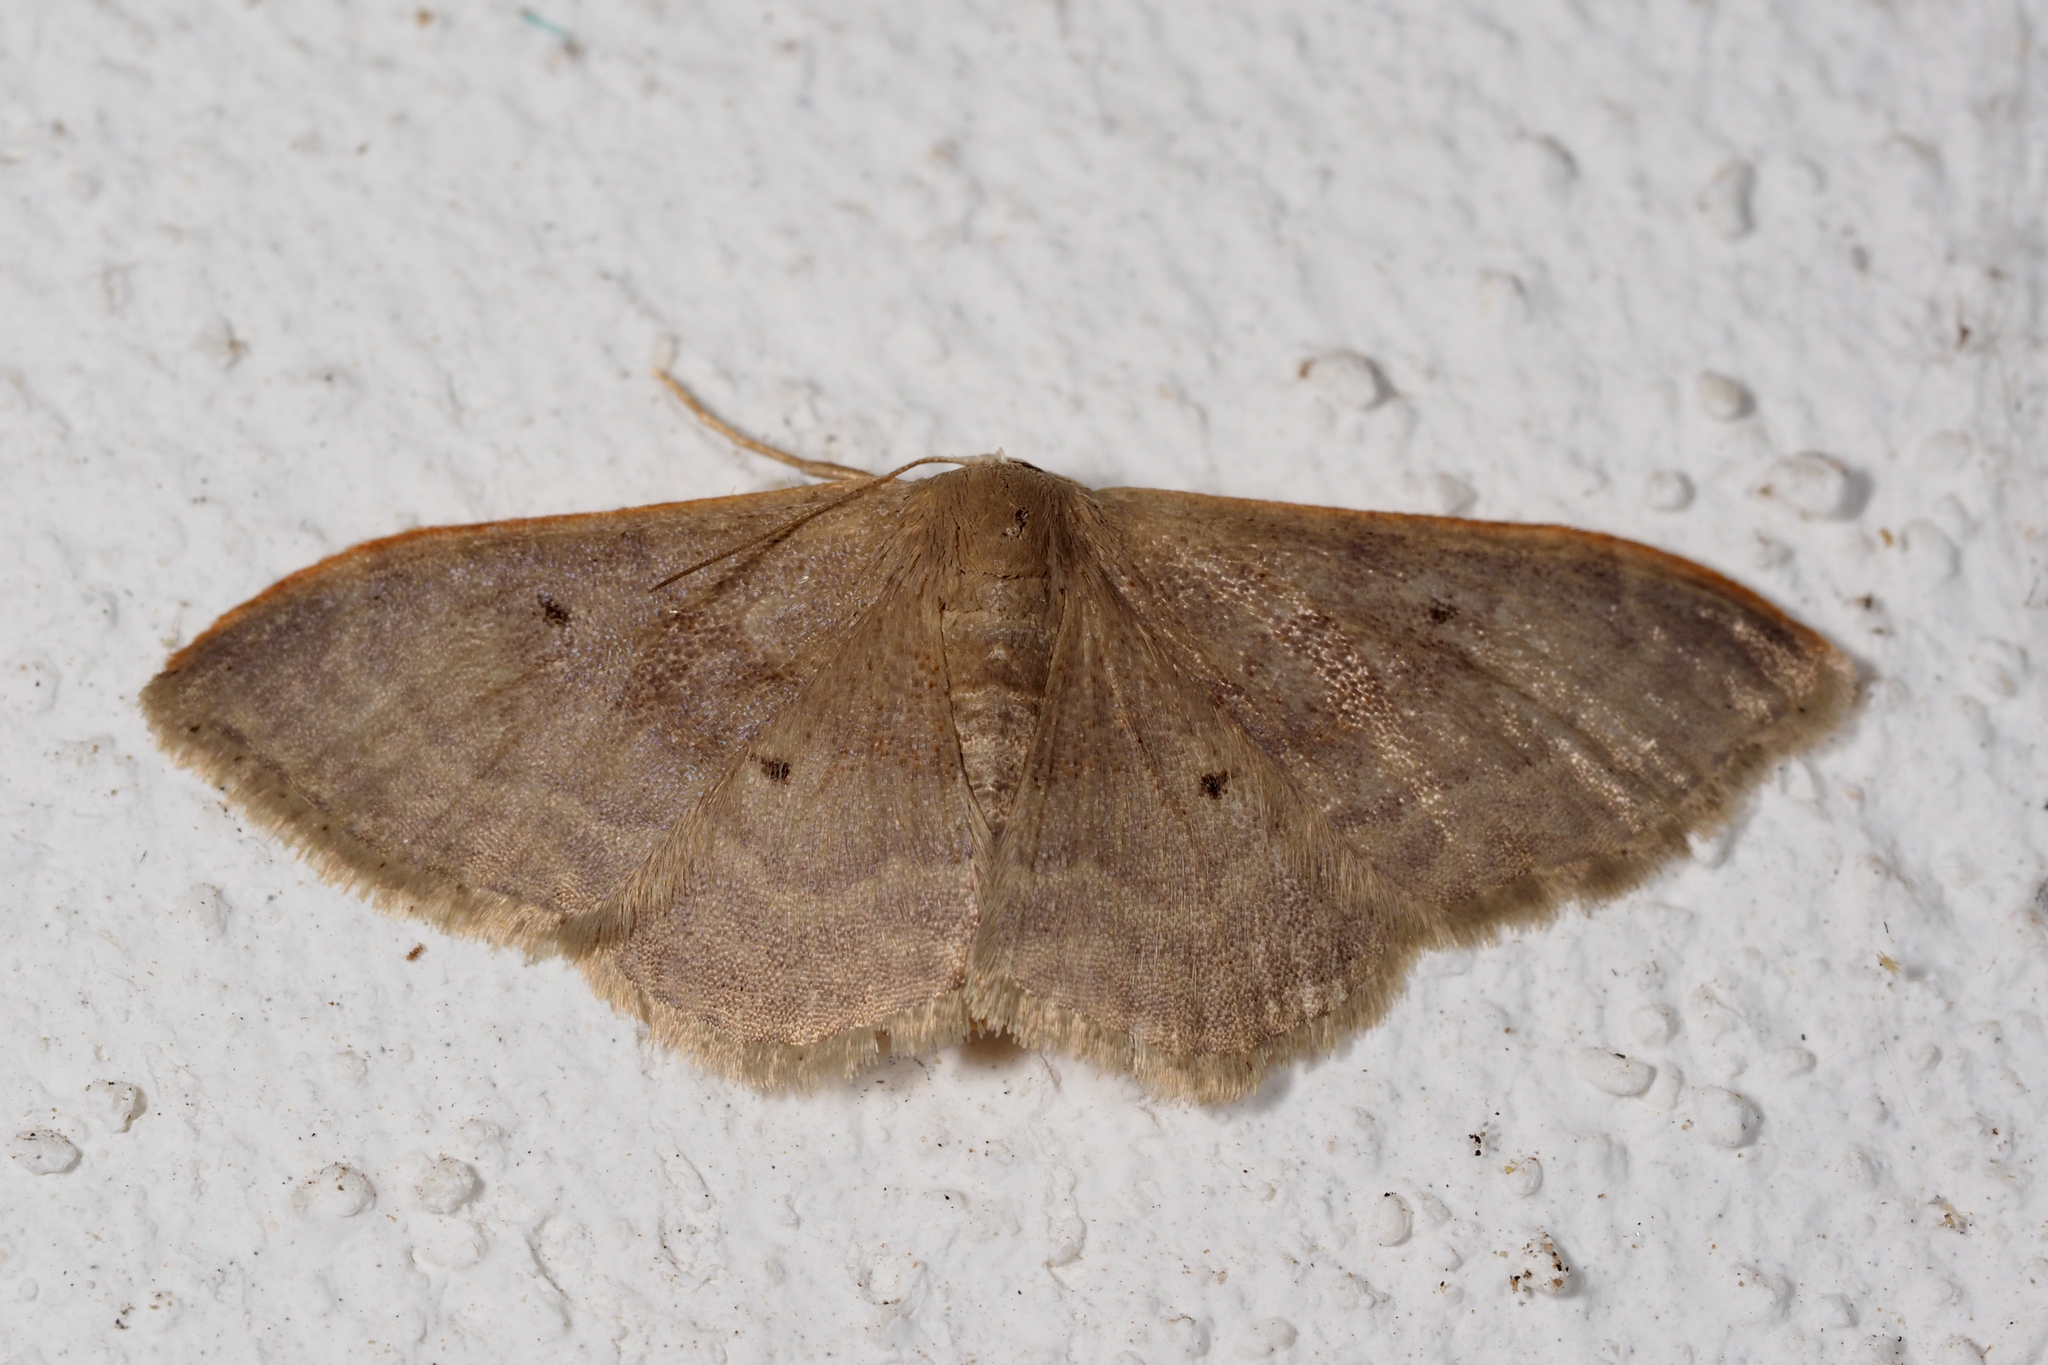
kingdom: Animalia
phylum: Arthropoda
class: Insecta
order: Lepidoptera
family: Geometridae
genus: Idaea
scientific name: Idaea degeneraria
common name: Portland ribbon wave
